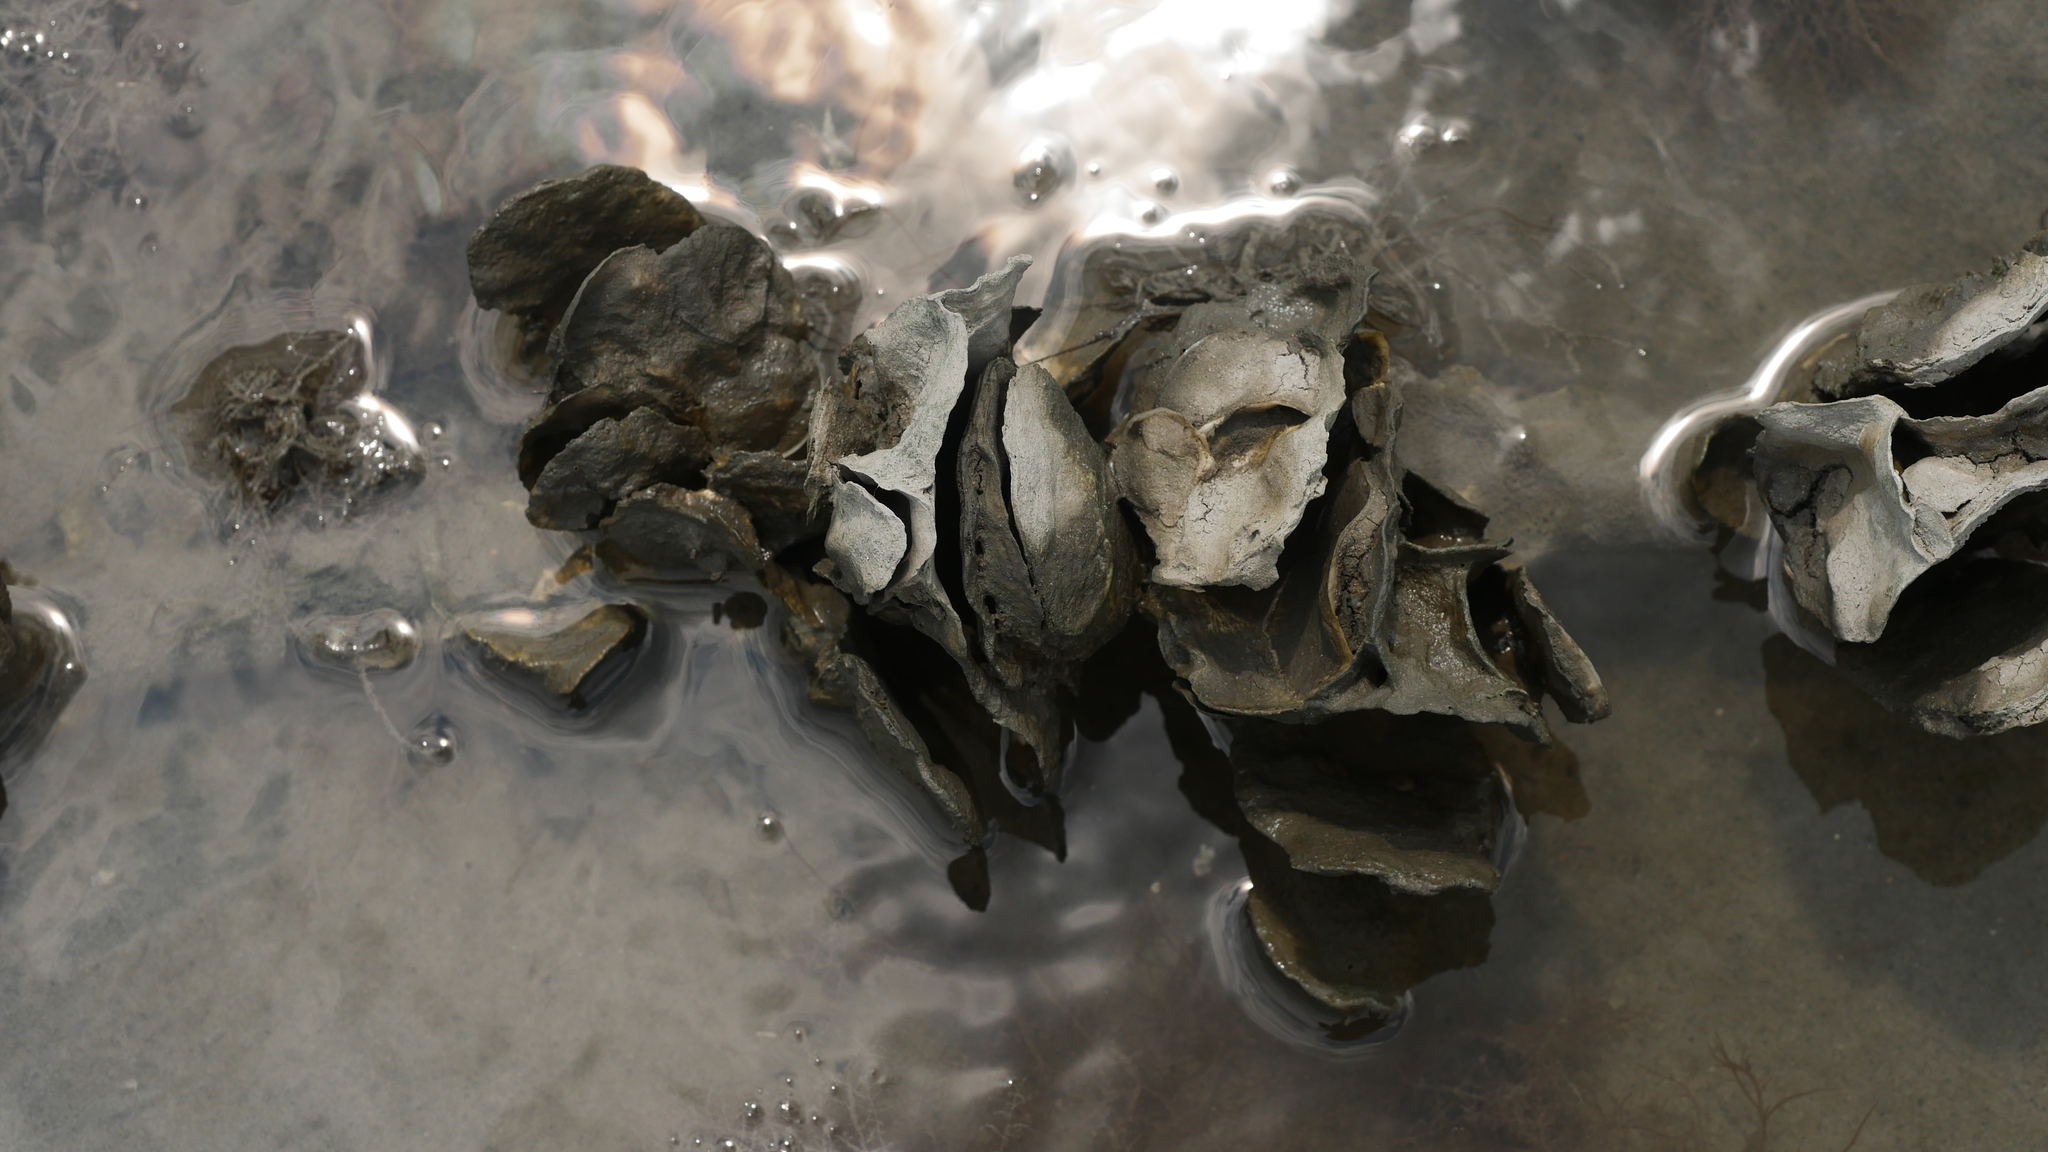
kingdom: Animalia
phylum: Mollusca
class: Bivalvia
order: Ostreida
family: Ostreidae
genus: Crassostrea
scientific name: Crassostrea virginica
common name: American oyster
